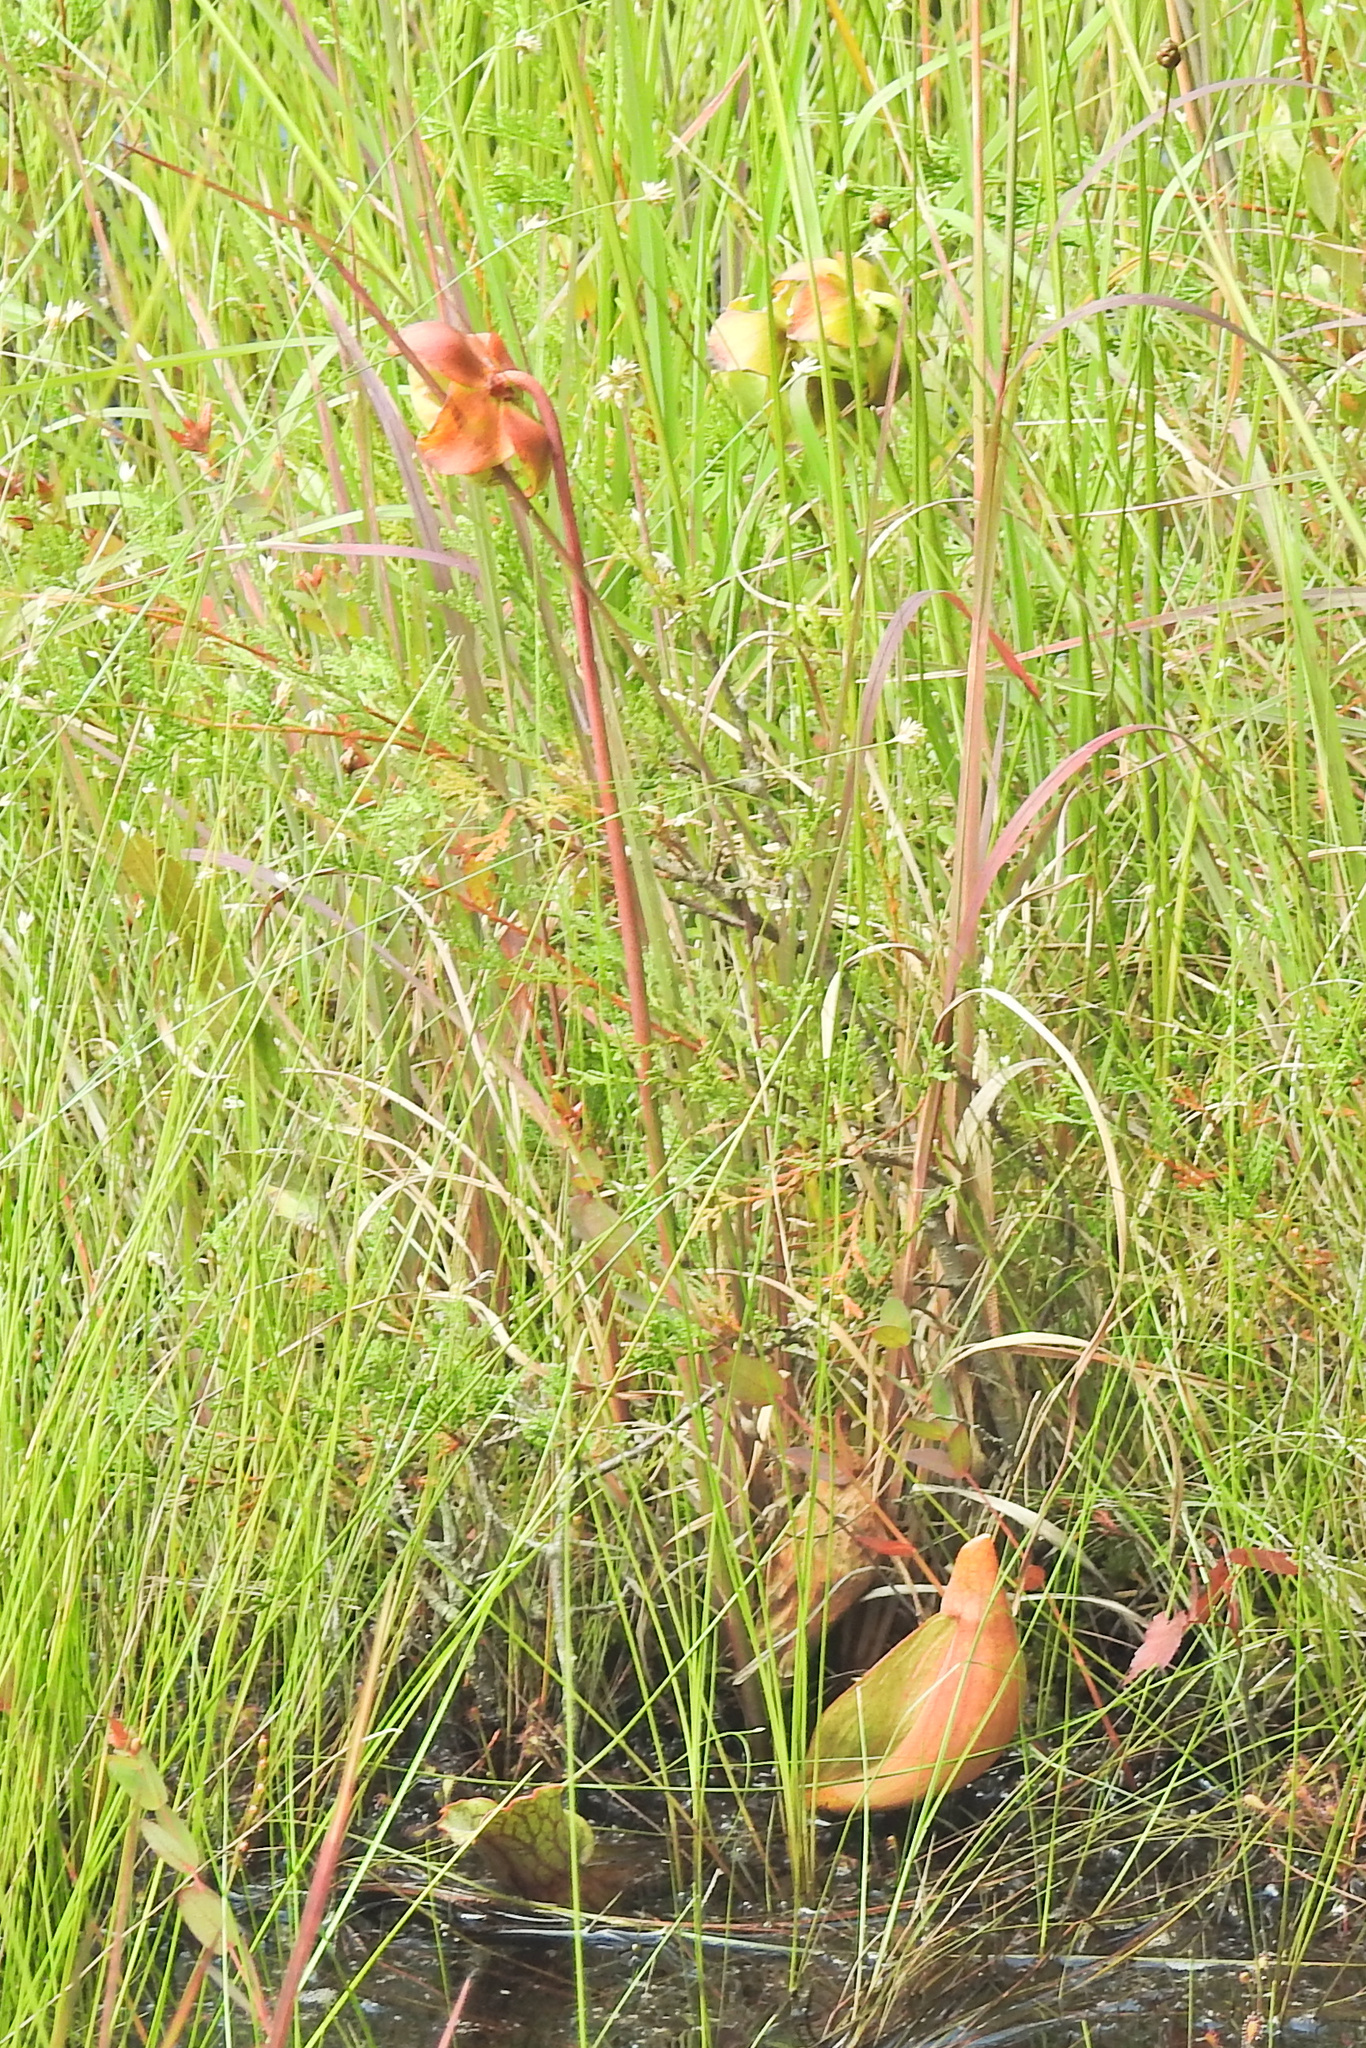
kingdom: Plantae
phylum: Tracheophyta
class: Magnoliopsida
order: Ericales
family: Sarraceniaceae
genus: Sarracenia
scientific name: Sarracenia purpurea
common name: Pitcherplant
